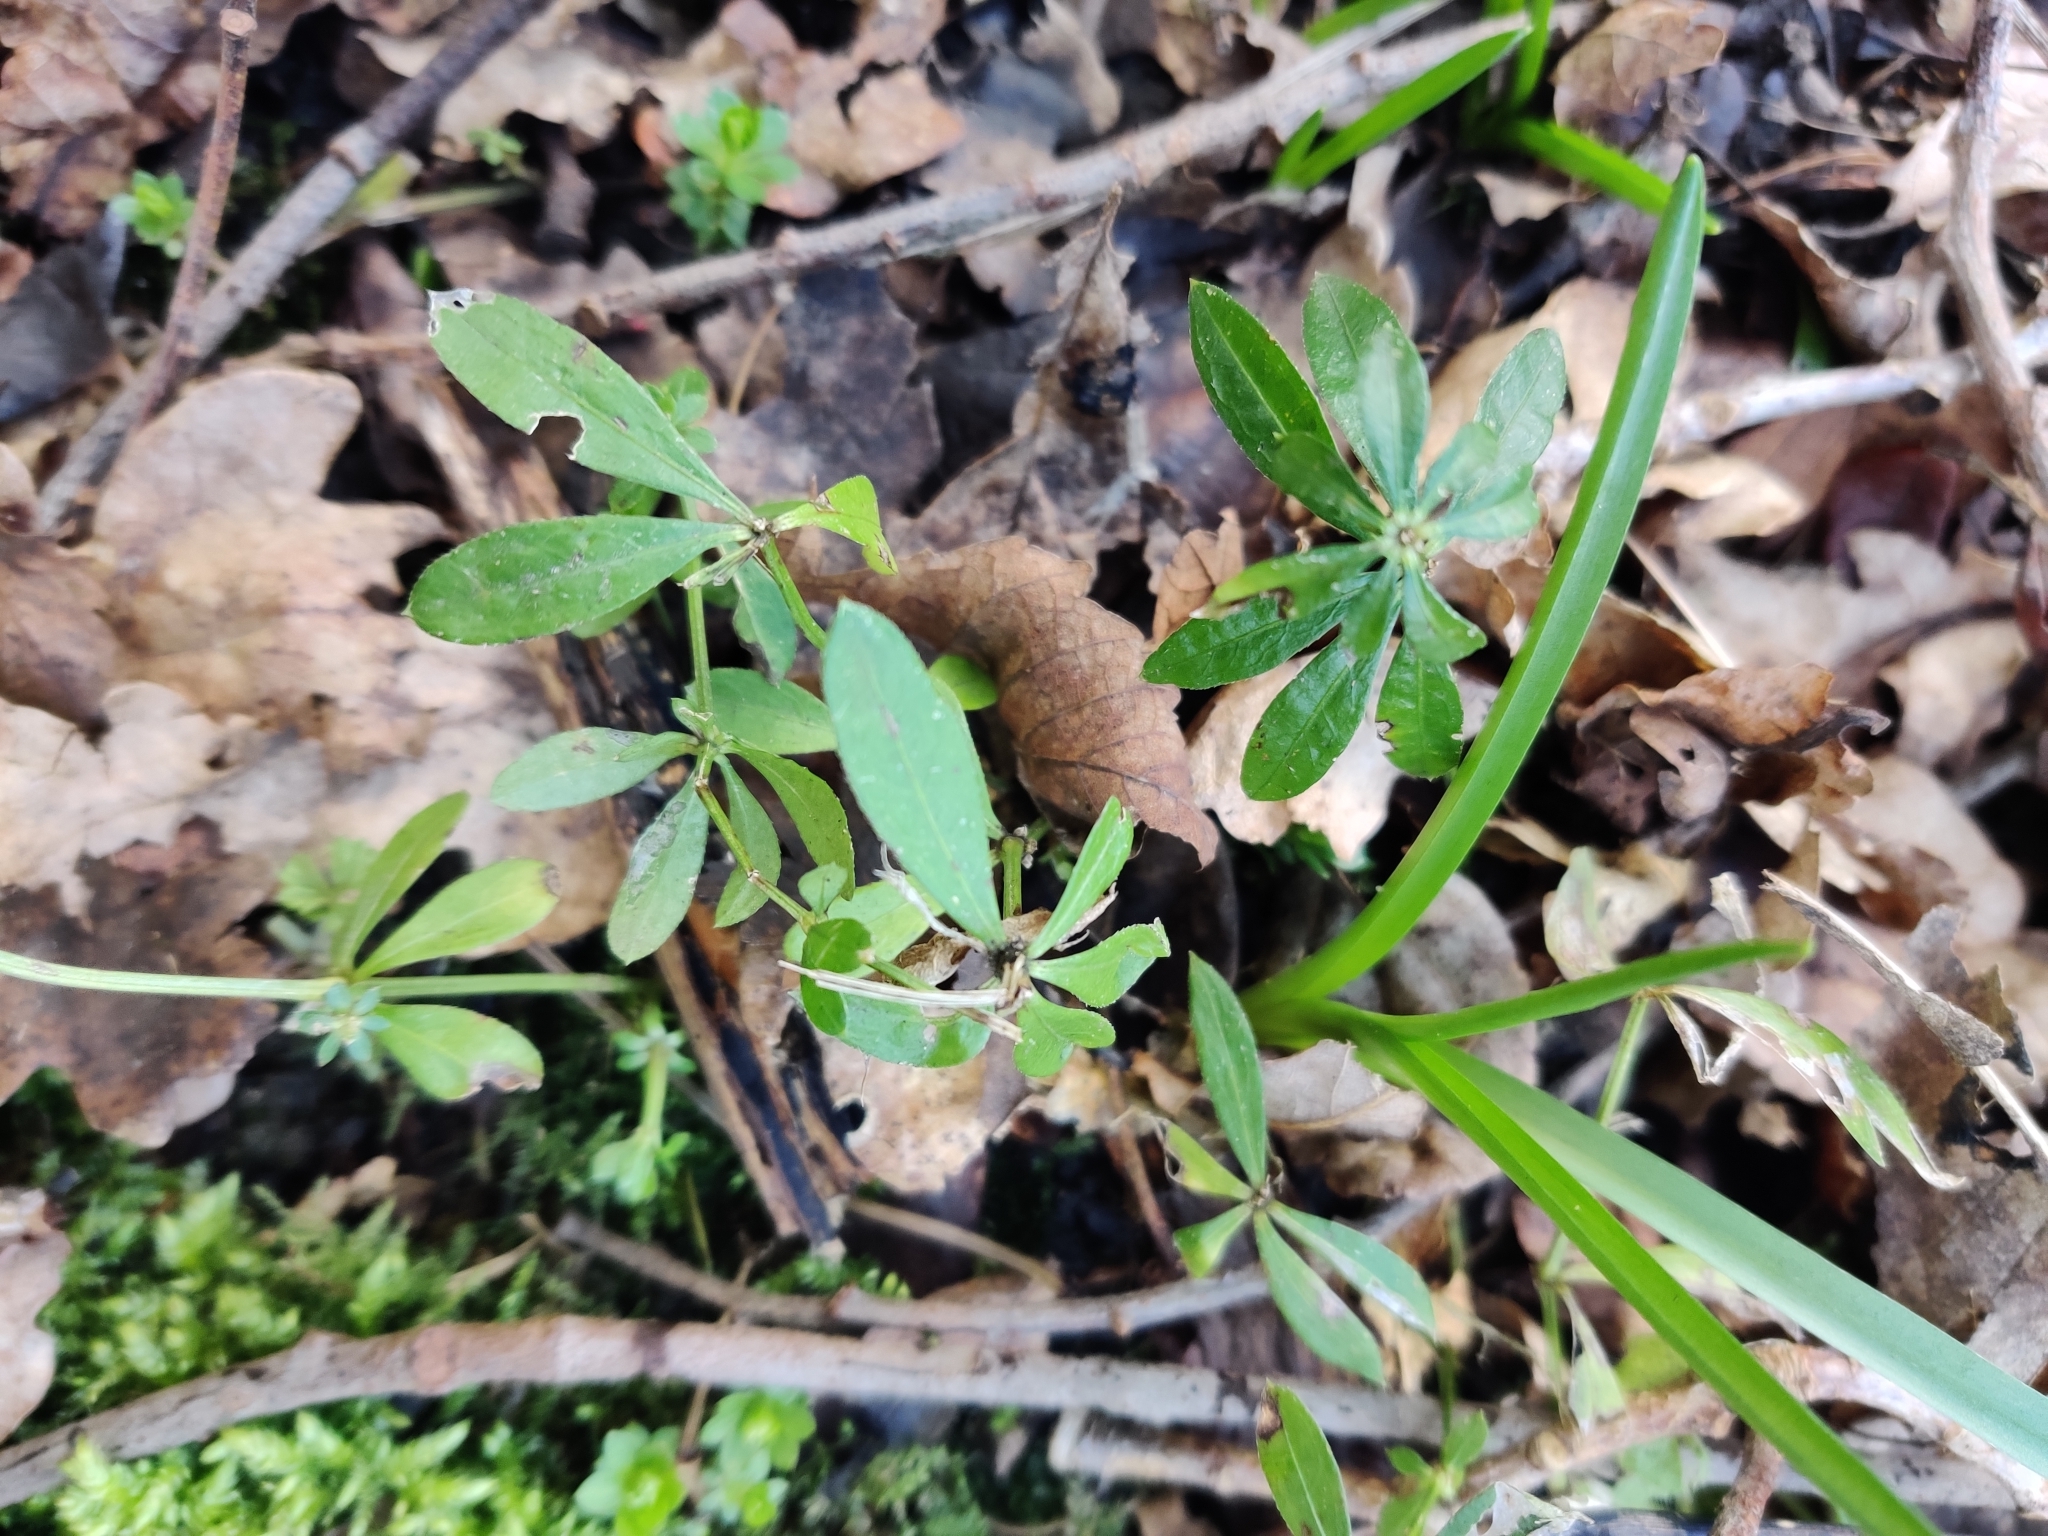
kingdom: Plantae
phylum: Tracheophyta
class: Magnoliopsida
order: Gentianales
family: Rubiaceae
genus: Galium
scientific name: Galium odoratum
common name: Sweet woodruff
